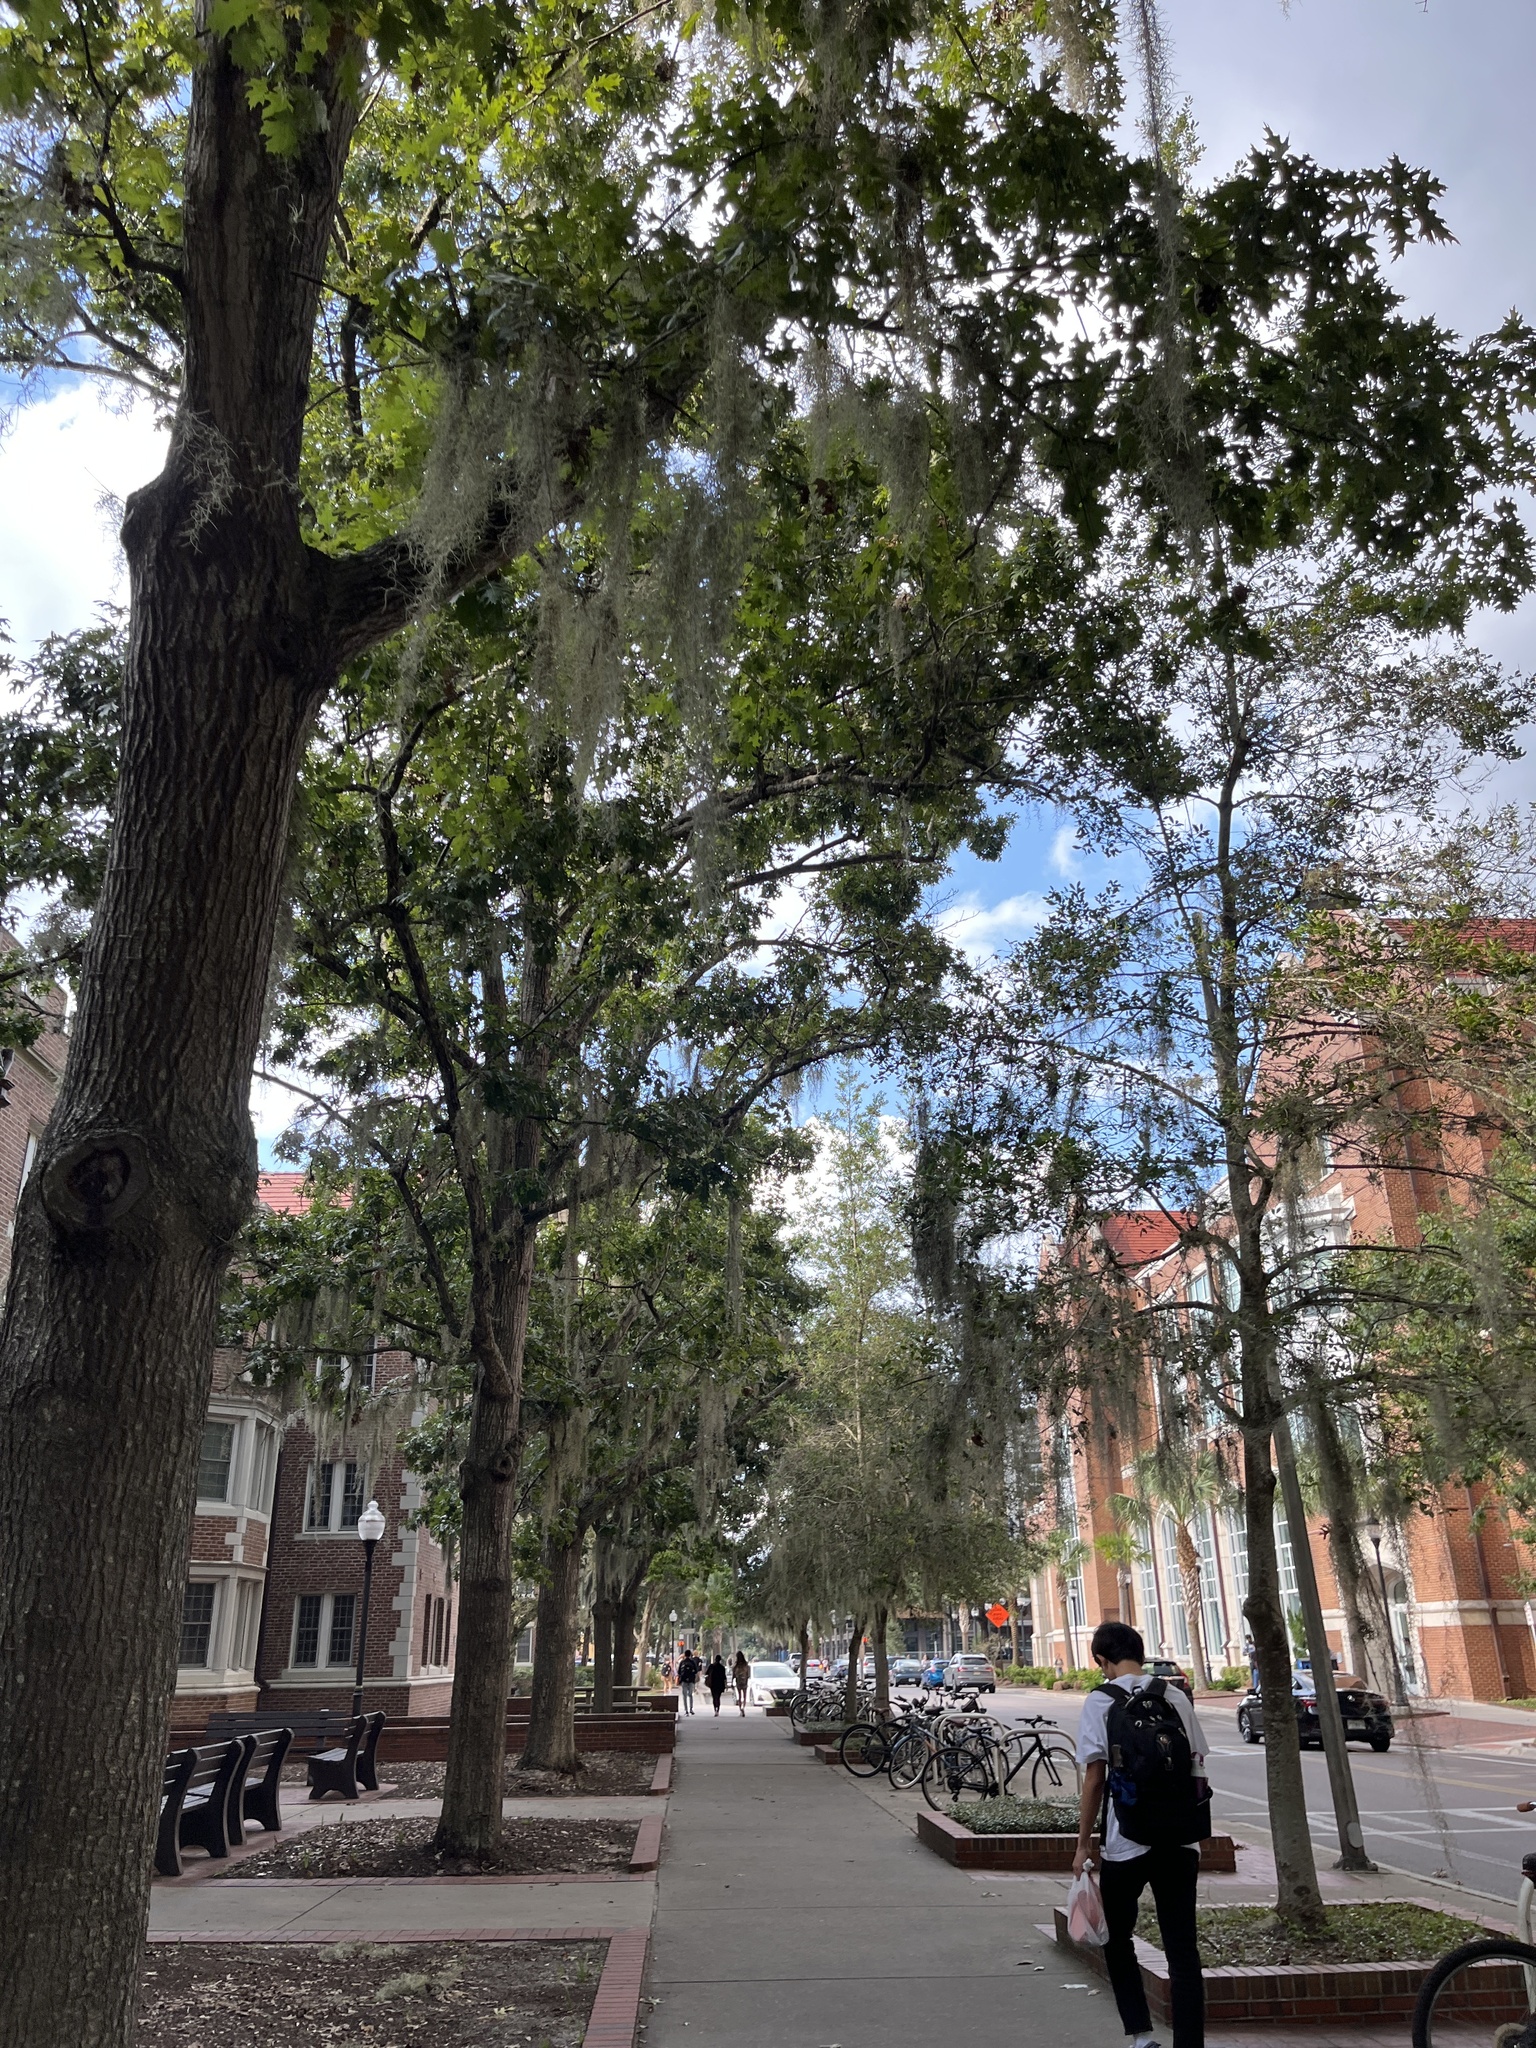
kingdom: Plantae
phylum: Tracheophyta
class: Liliopsida
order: Poales
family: Bromeliaceae
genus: Tillandsia
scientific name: Tillandsia usneoides
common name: Spanish moss
